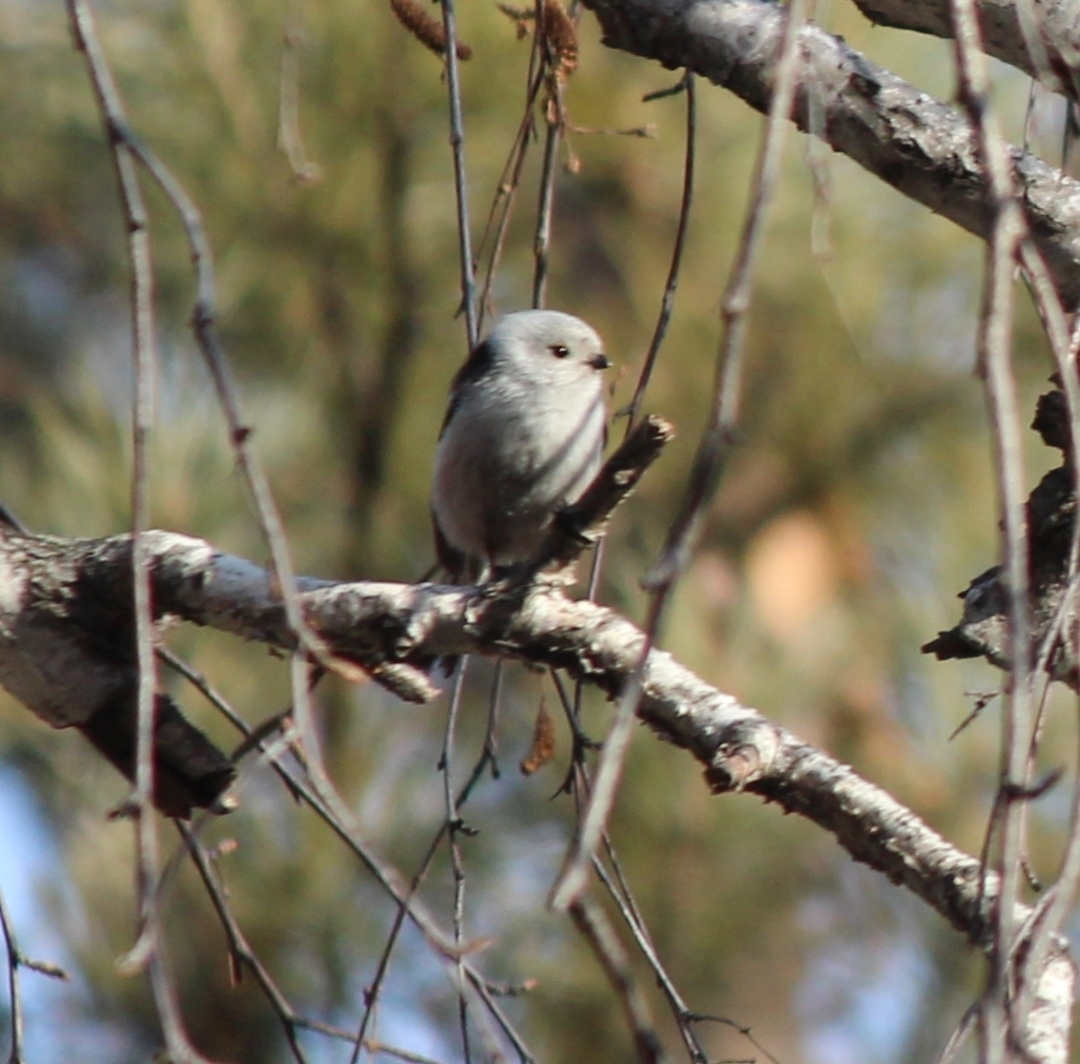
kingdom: Animalia
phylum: Chordata
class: Aves
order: Passeriformes
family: Aegithalidae
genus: Aegithalos
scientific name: Aegithalos caudatus
